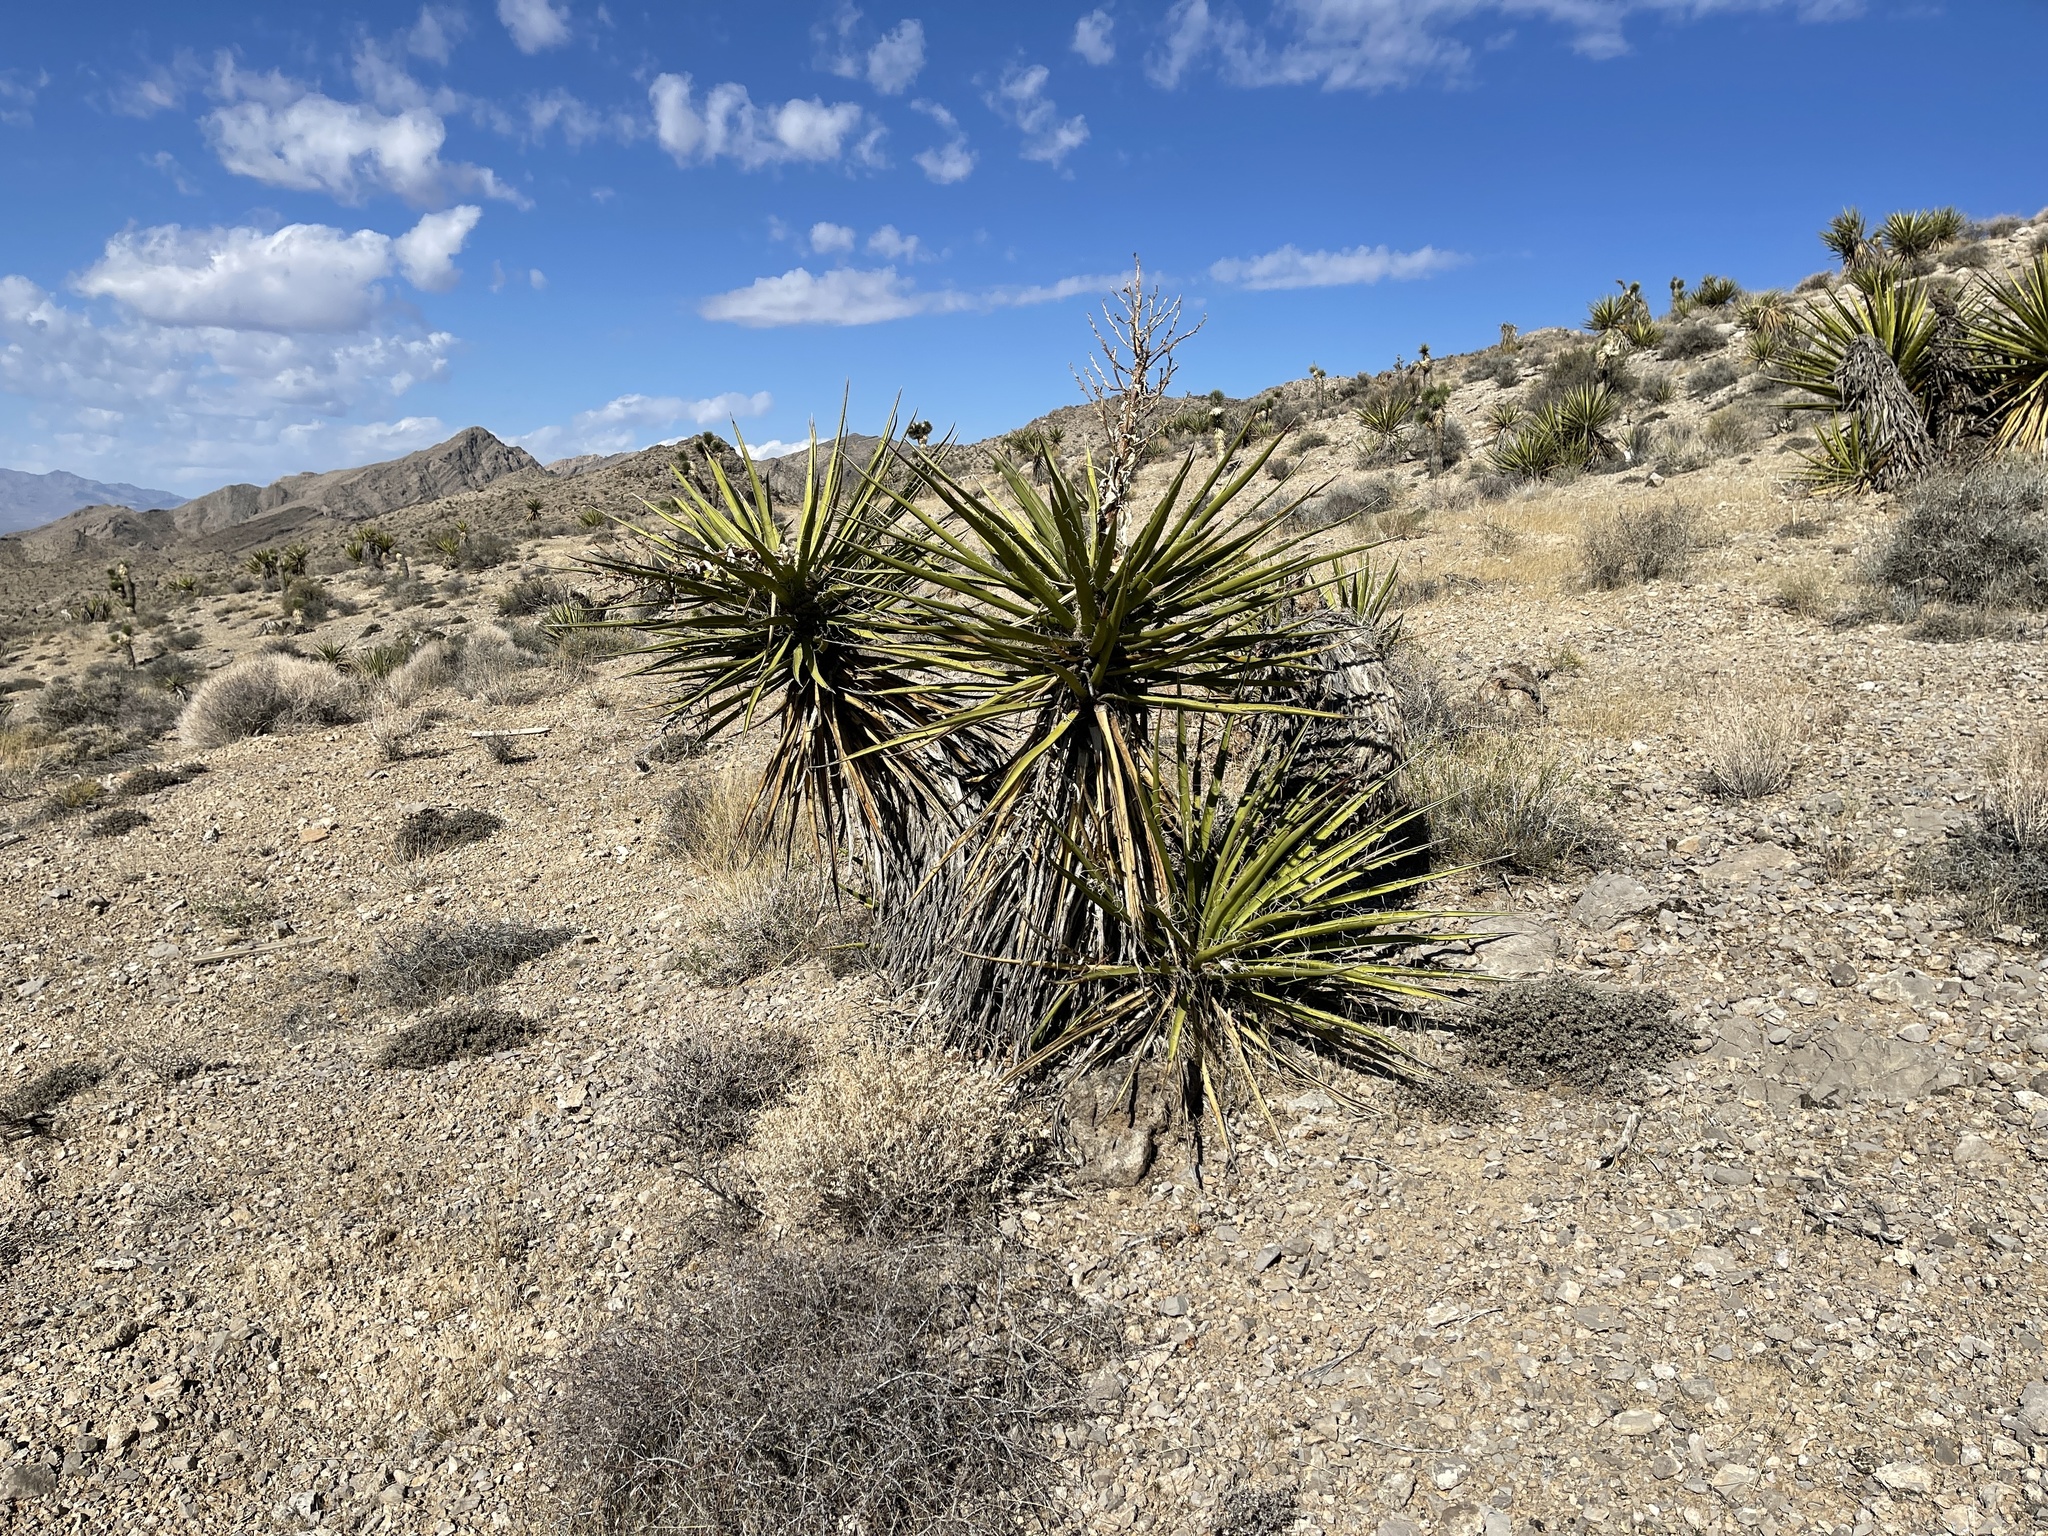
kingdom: Plantae
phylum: Tracheophyta
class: Liliopsida
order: Asparagales
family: Asparagaceae
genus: Yucca
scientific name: Yucca schidigera
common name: Mojave yucca
